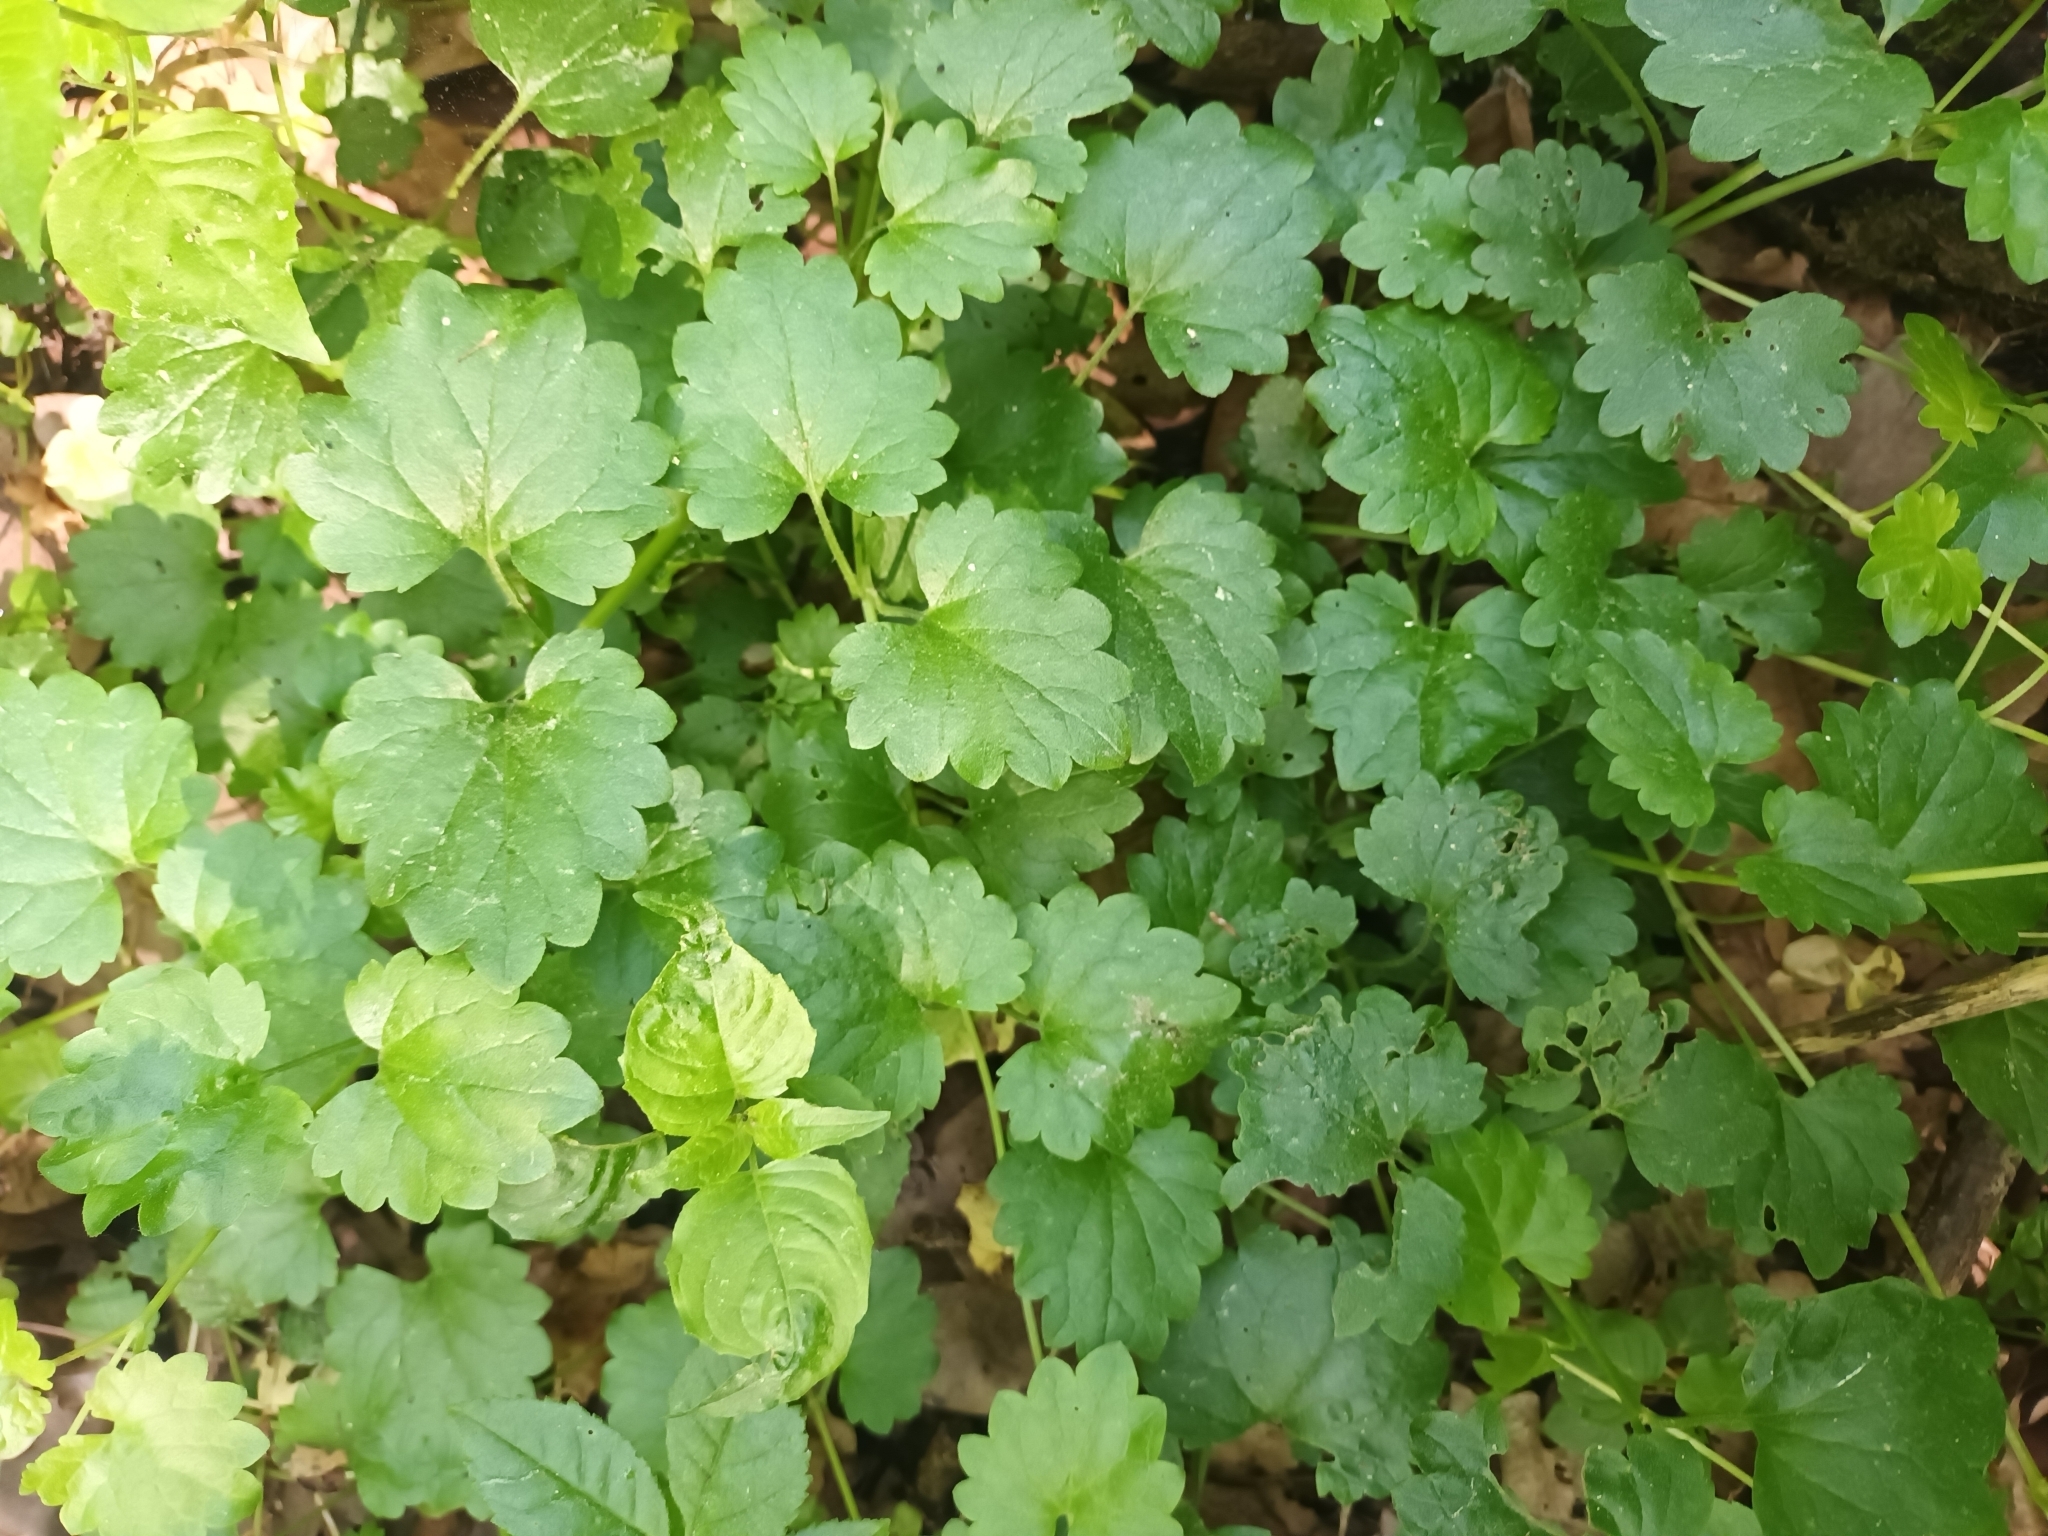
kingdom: Plantae
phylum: Tracheophyta
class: Magnoliopsida
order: Lamiales
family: Lamiaceae
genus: Glechoma
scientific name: Glechoma hederacea
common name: Ground ivy
